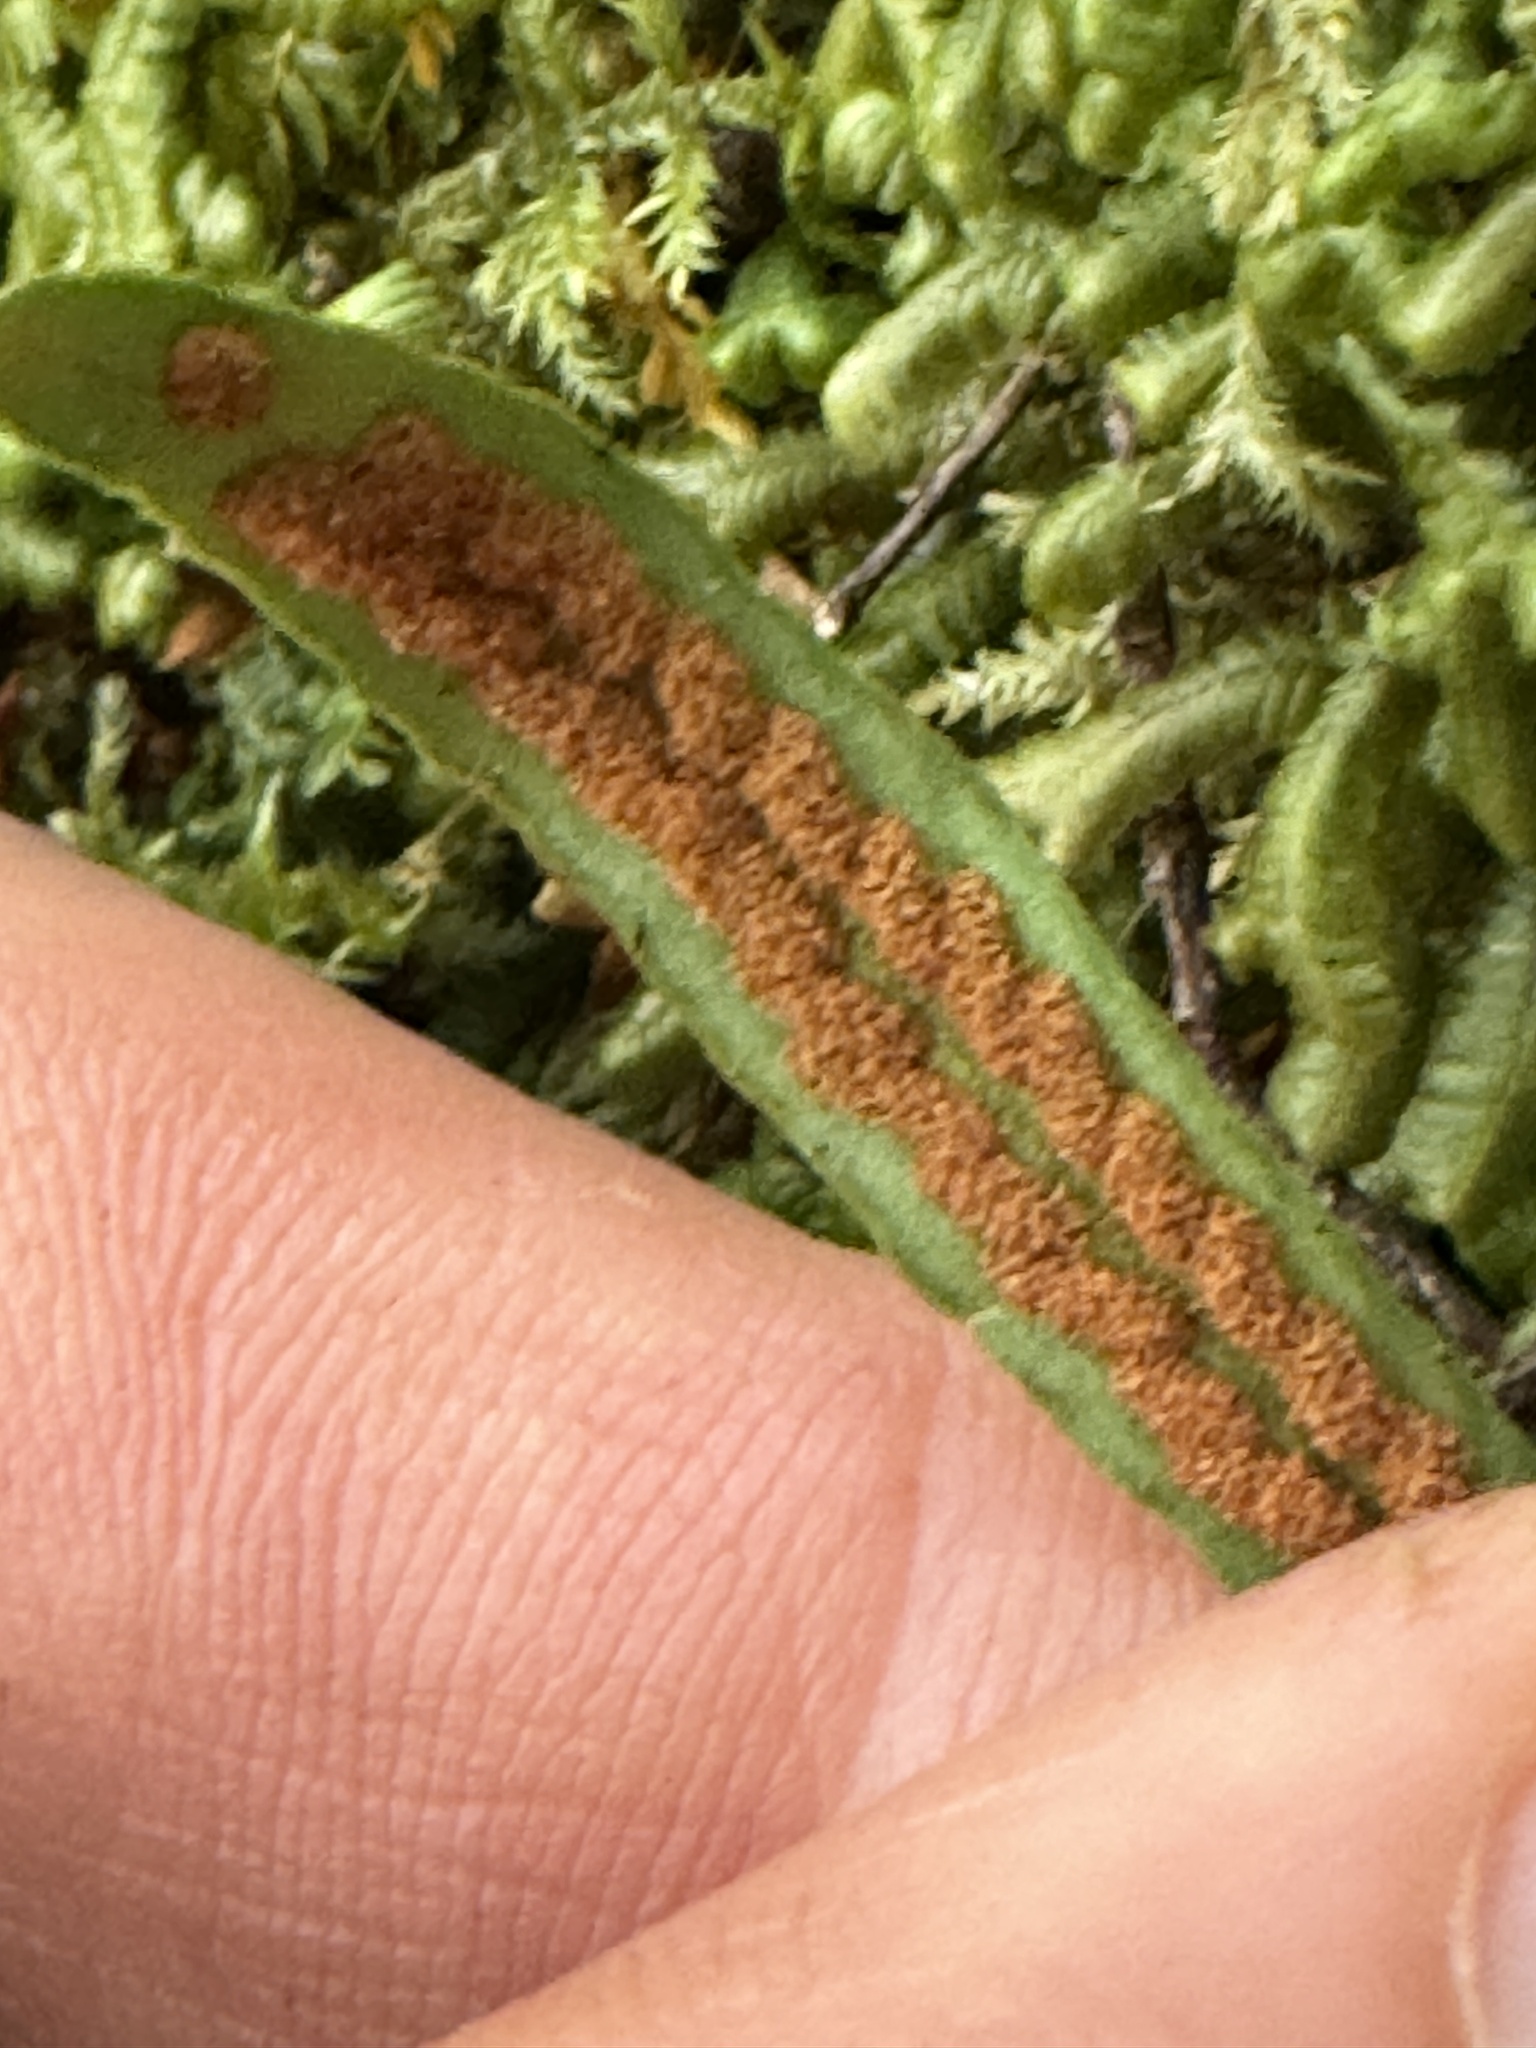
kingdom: Plantae
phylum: Tracheophyta
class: Polypodiopsida
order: Polypodiales
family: Polypodiaceae
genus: Notogrammitis
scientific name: Notogrammitis billardierei
